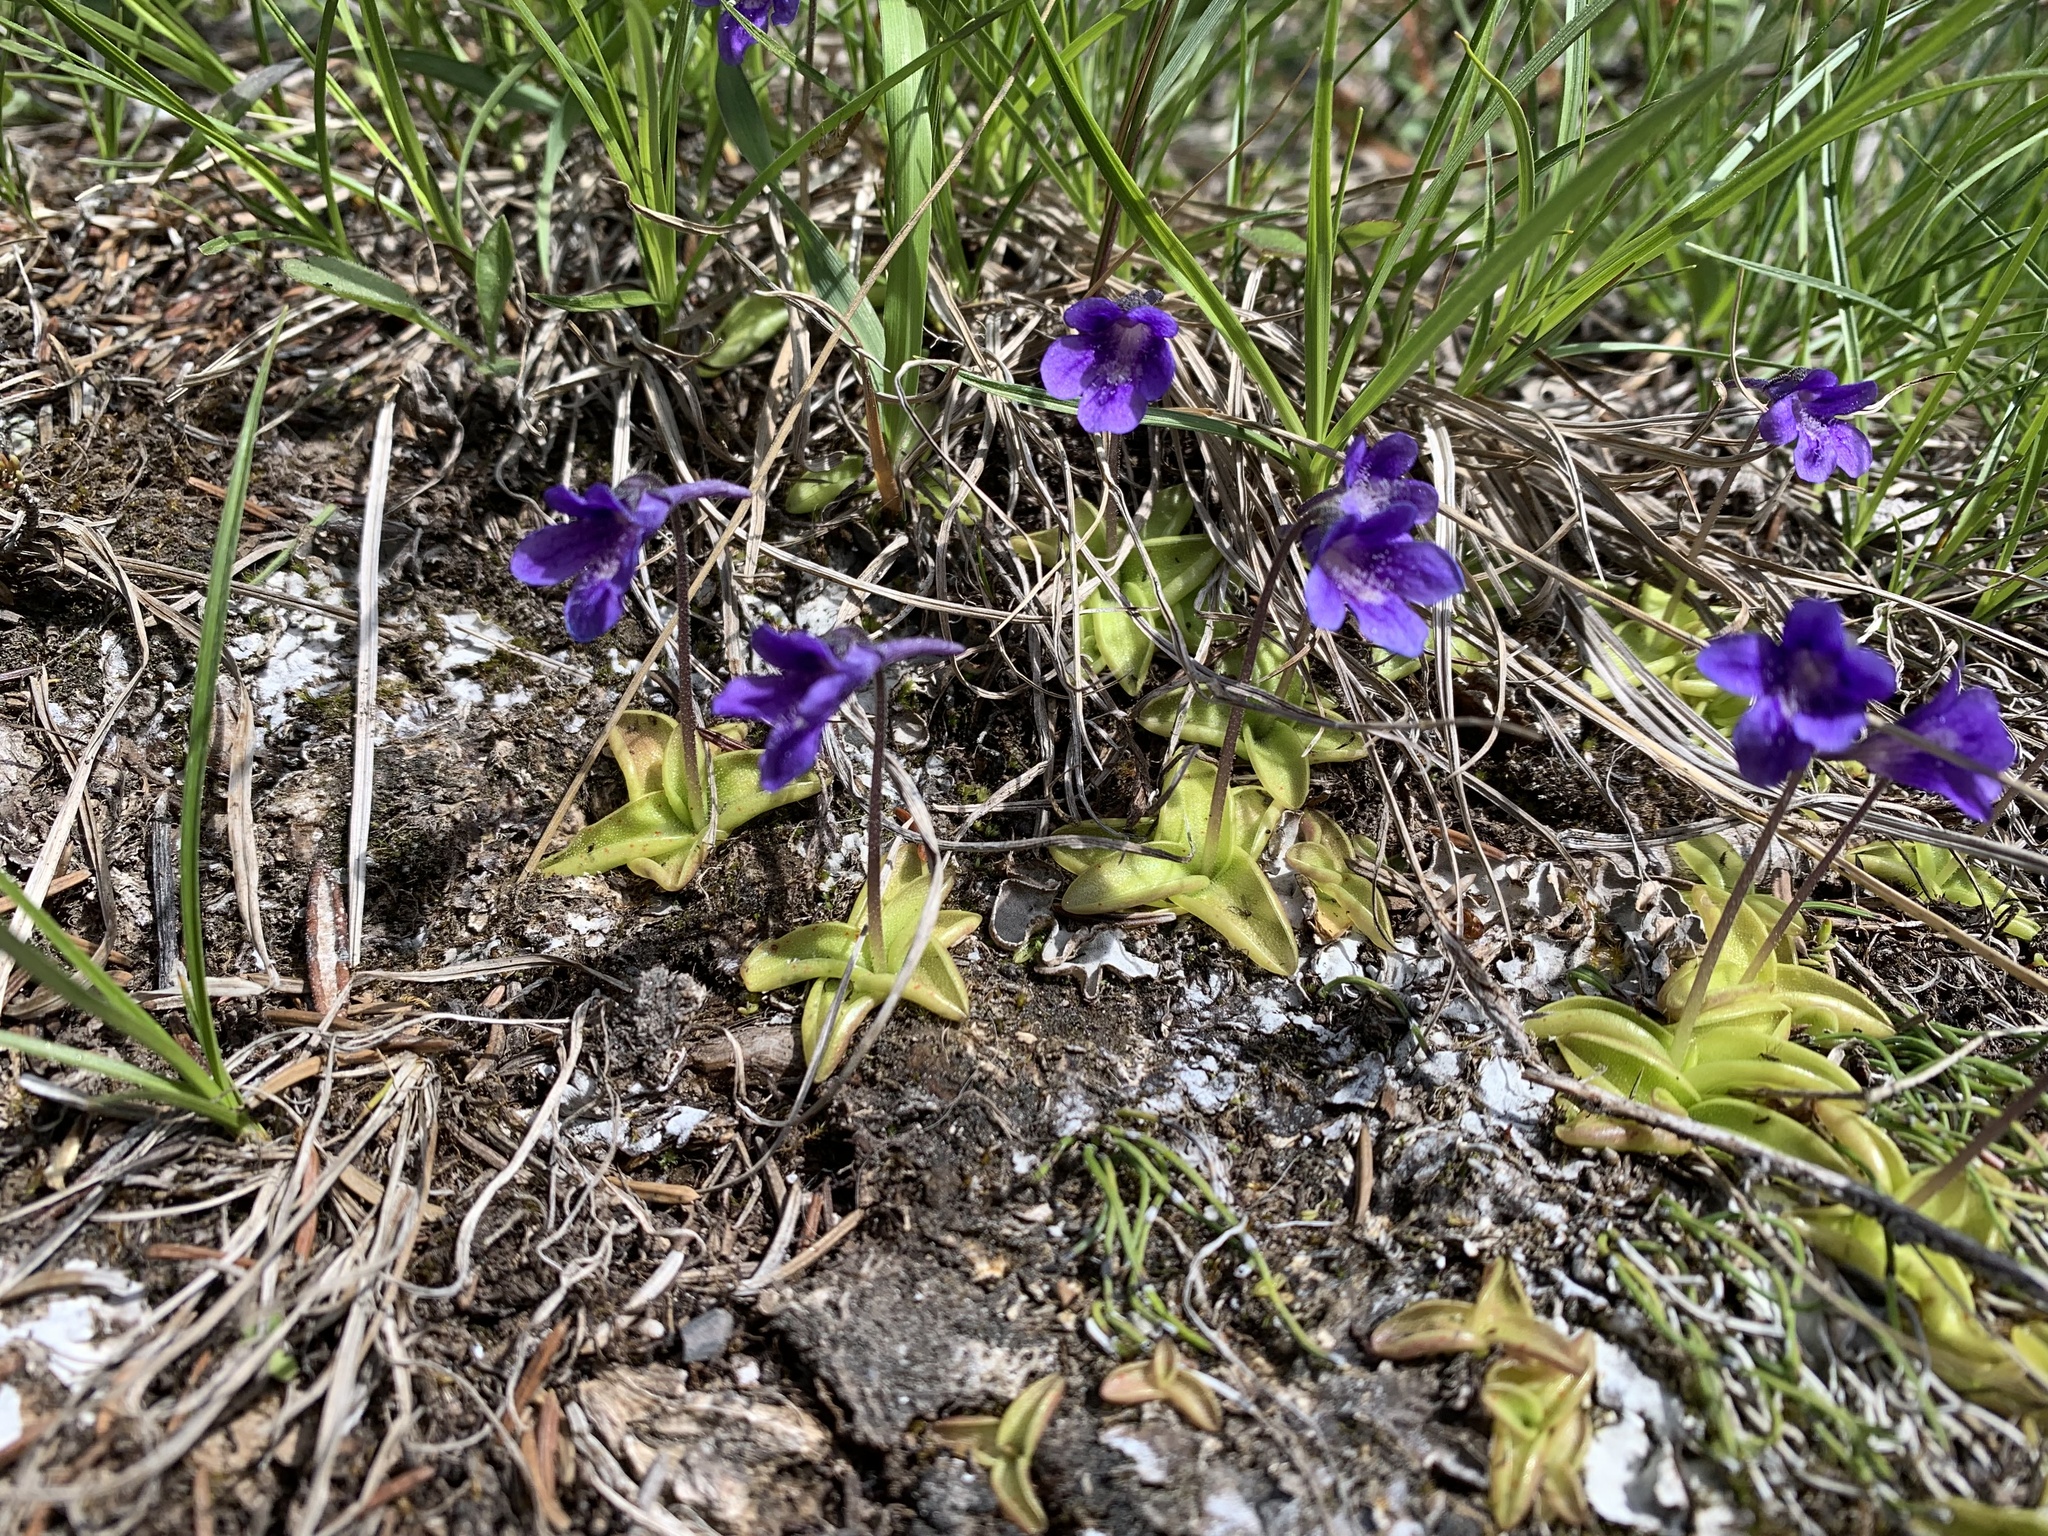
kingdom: Plantae
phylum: Tracheophyta
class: Magnoliopsida
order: Lamiales
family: Lentibulariaceae
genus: Pinguicula
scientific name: Pinguicula vulgaris
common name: Common butterwort
